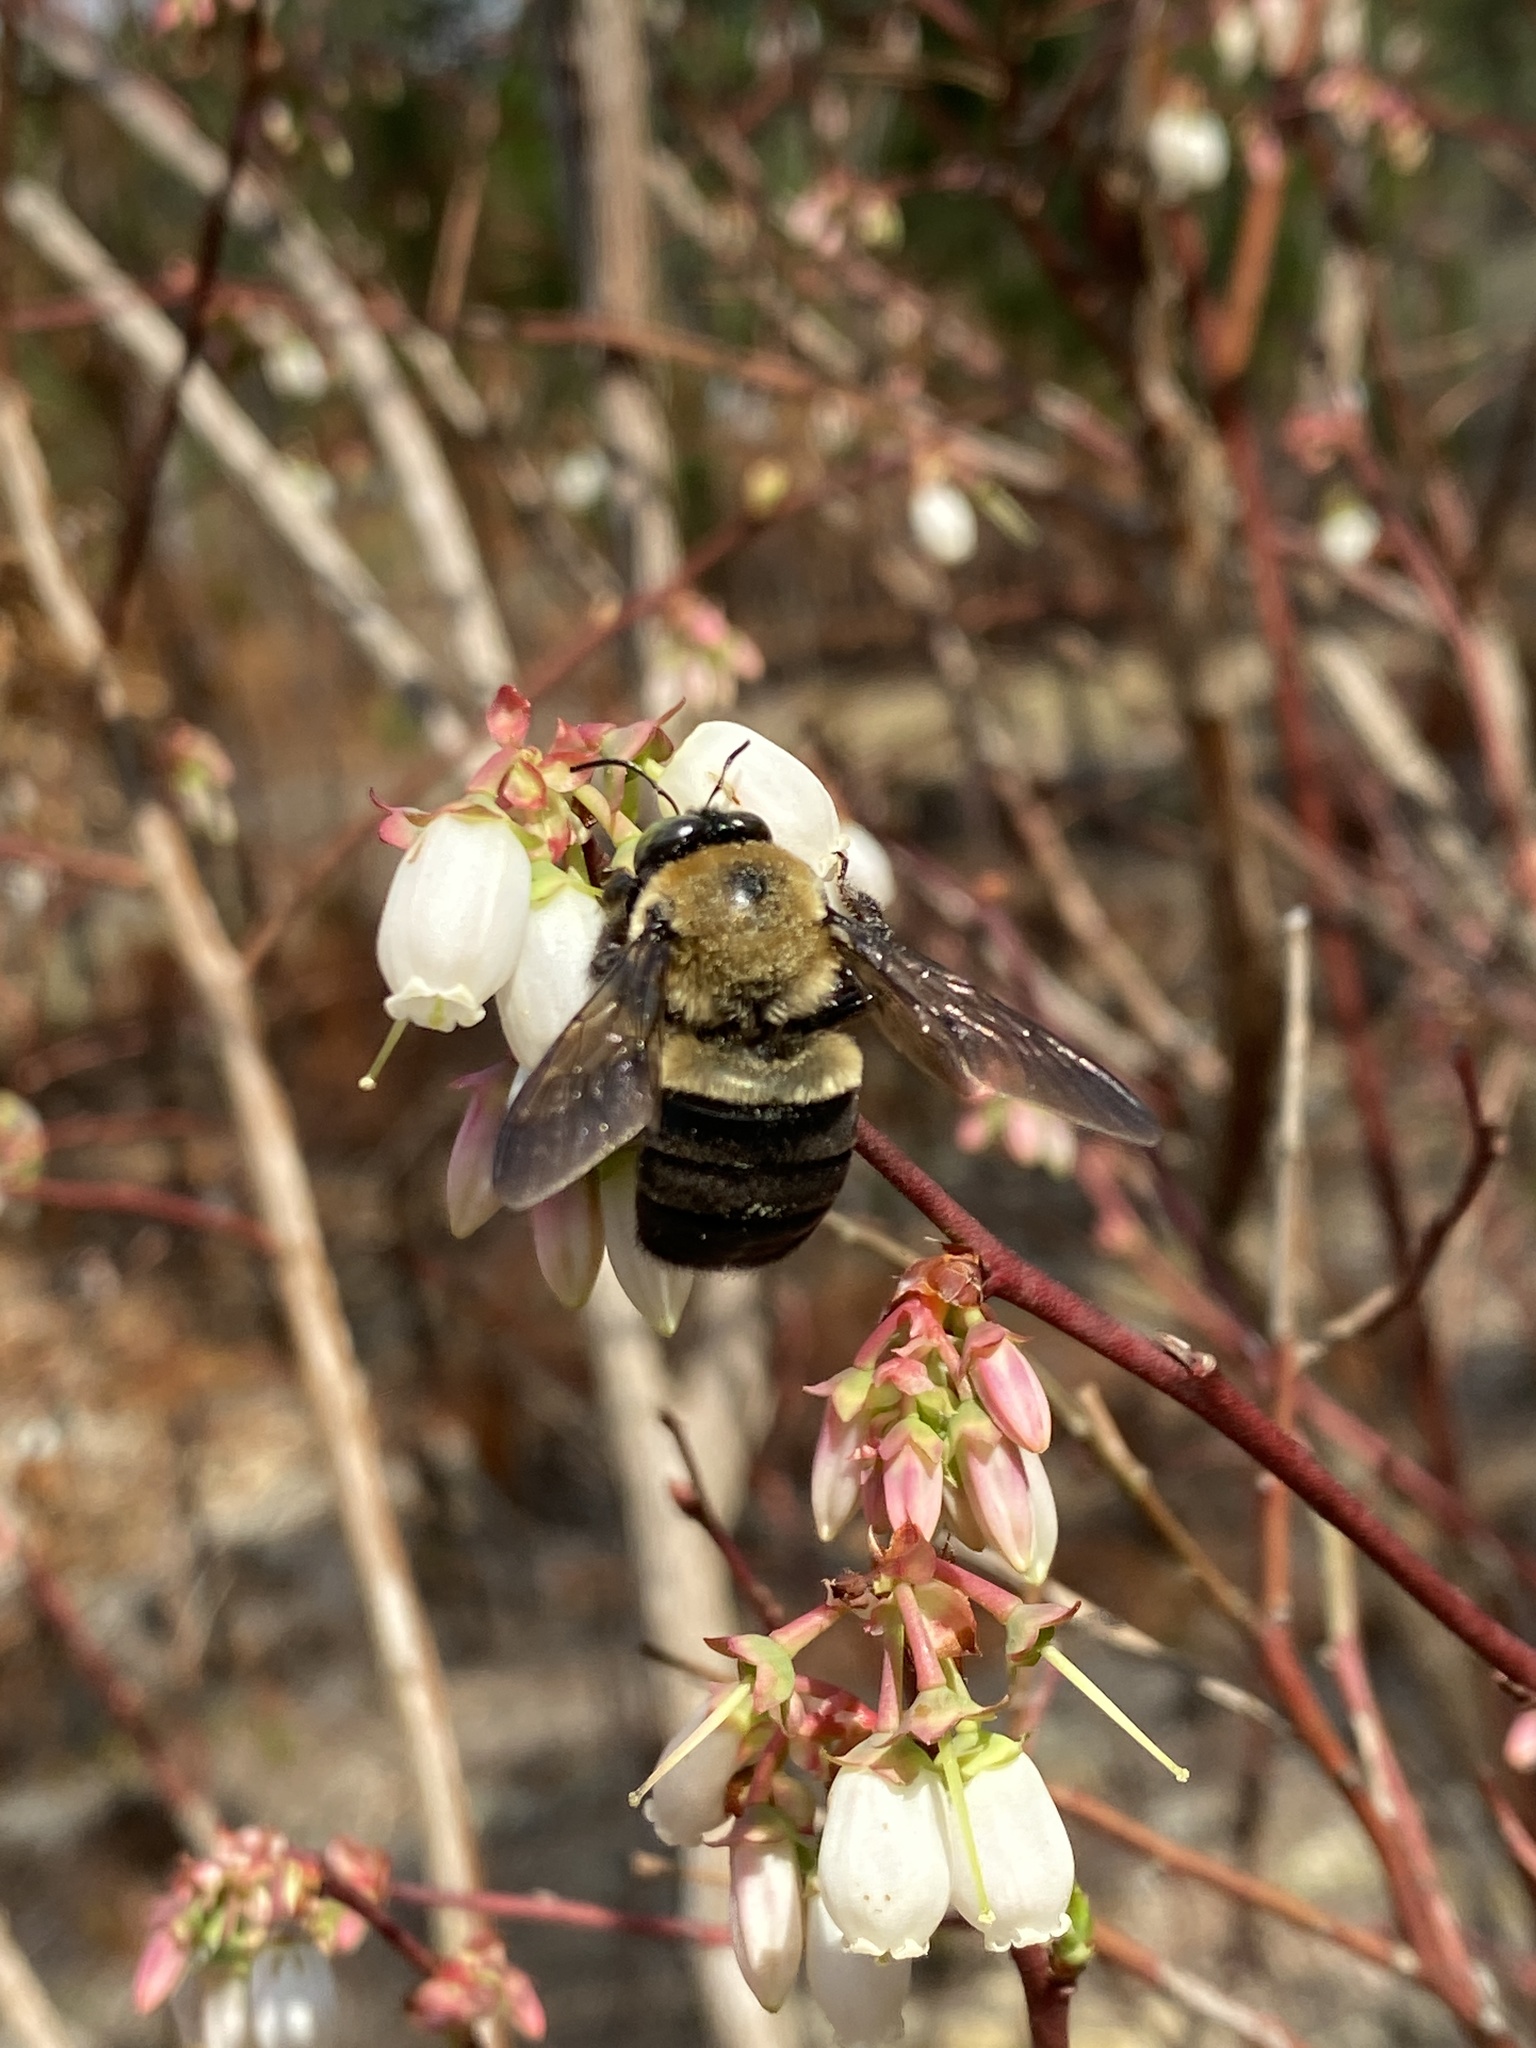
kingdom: Animalia
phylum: Arthropoda
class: Insecta
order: Hymenoptera
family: Apidae
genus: Xylocopa
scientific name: Xylocopa virginica
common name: Carpenter bee
